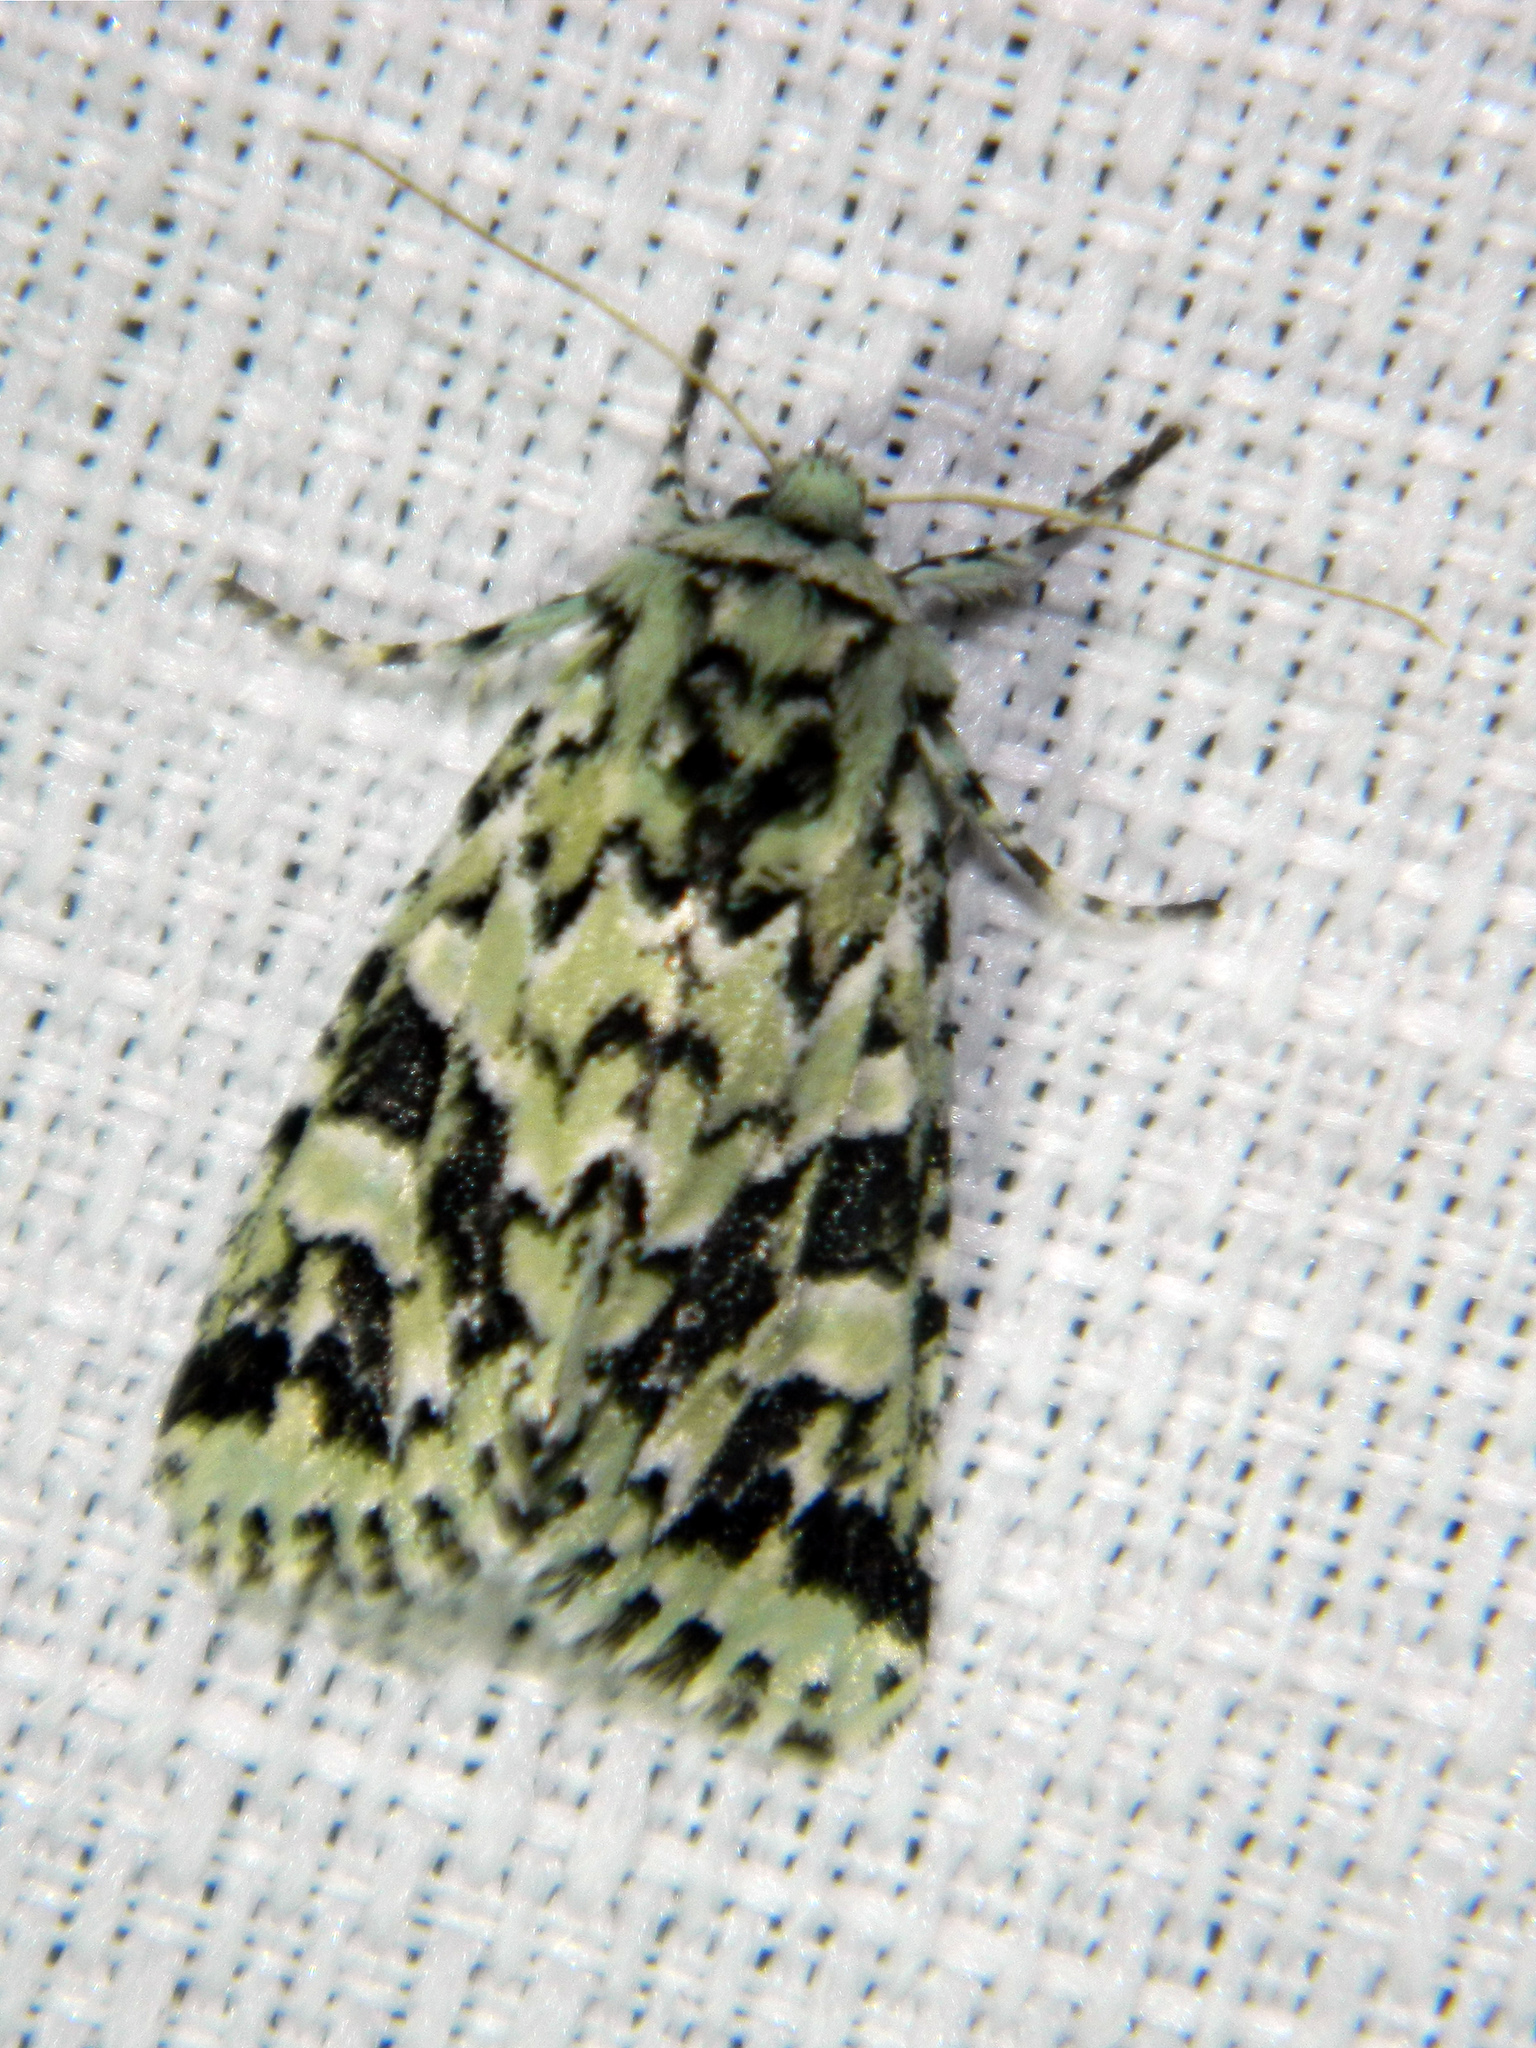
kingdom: Animalia
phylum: Arthropoda
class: Insecta
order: Lepidoptera
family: Noctuidae
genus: Feralia
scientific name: Feralia comstocki
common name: Comstock's sallow
